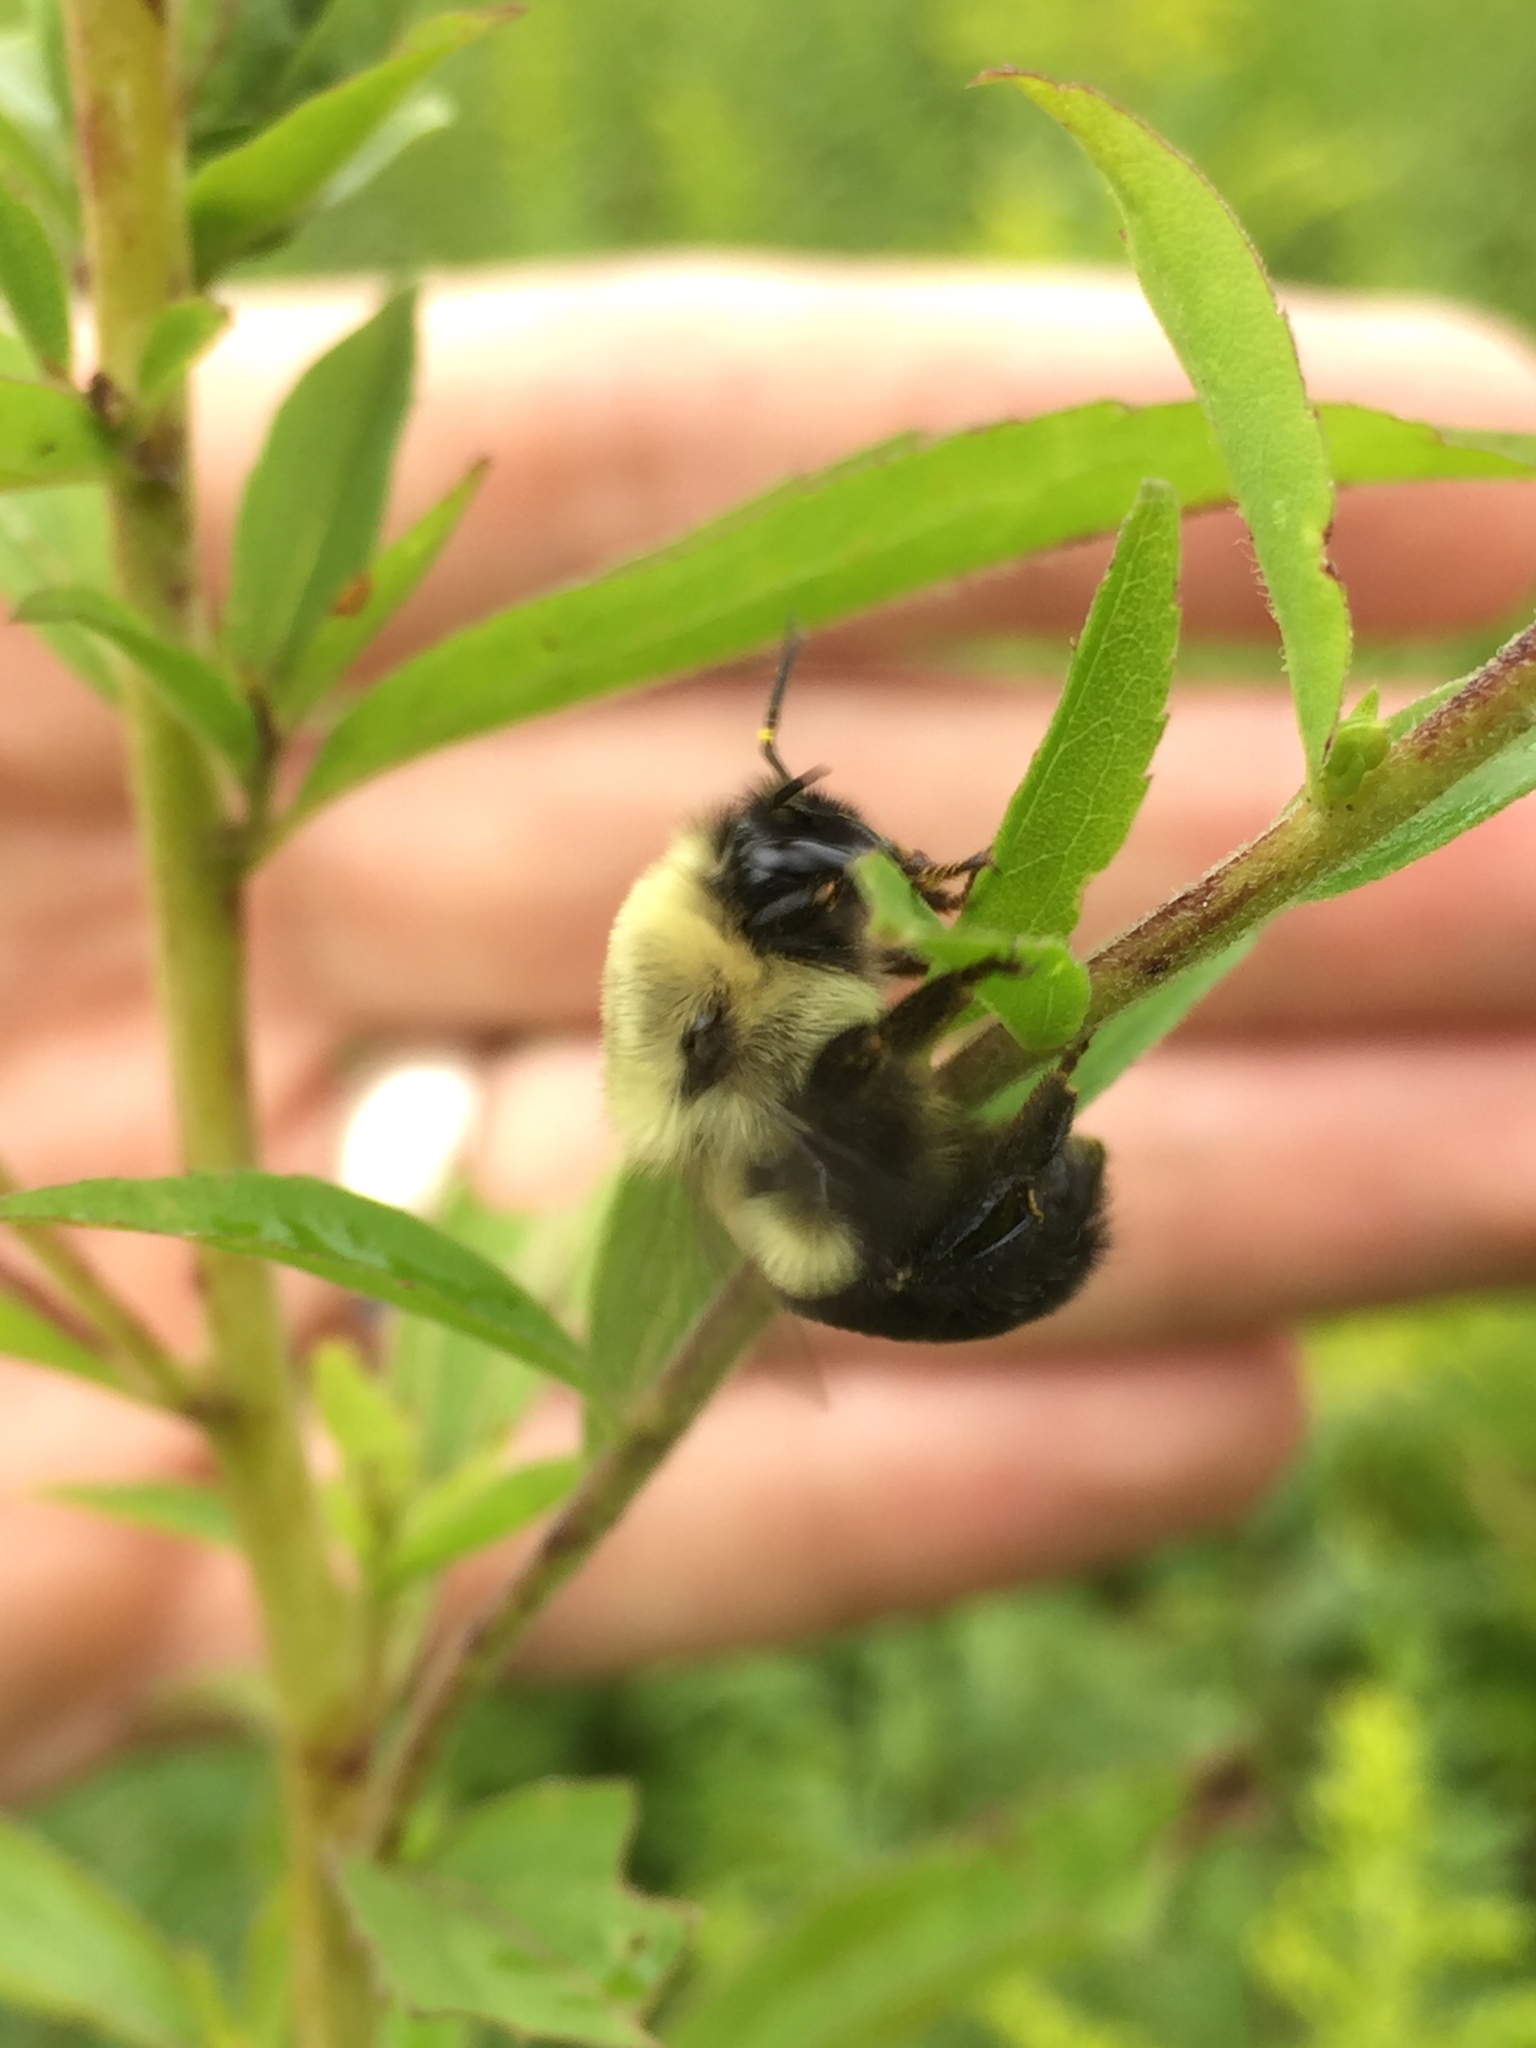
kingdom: Animalia
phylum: Arthropoda
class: Insecta
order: Hymenoptera
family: Apidae
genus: Bombus
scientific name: Bombus impatiens
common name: Common eastern bumble bee
